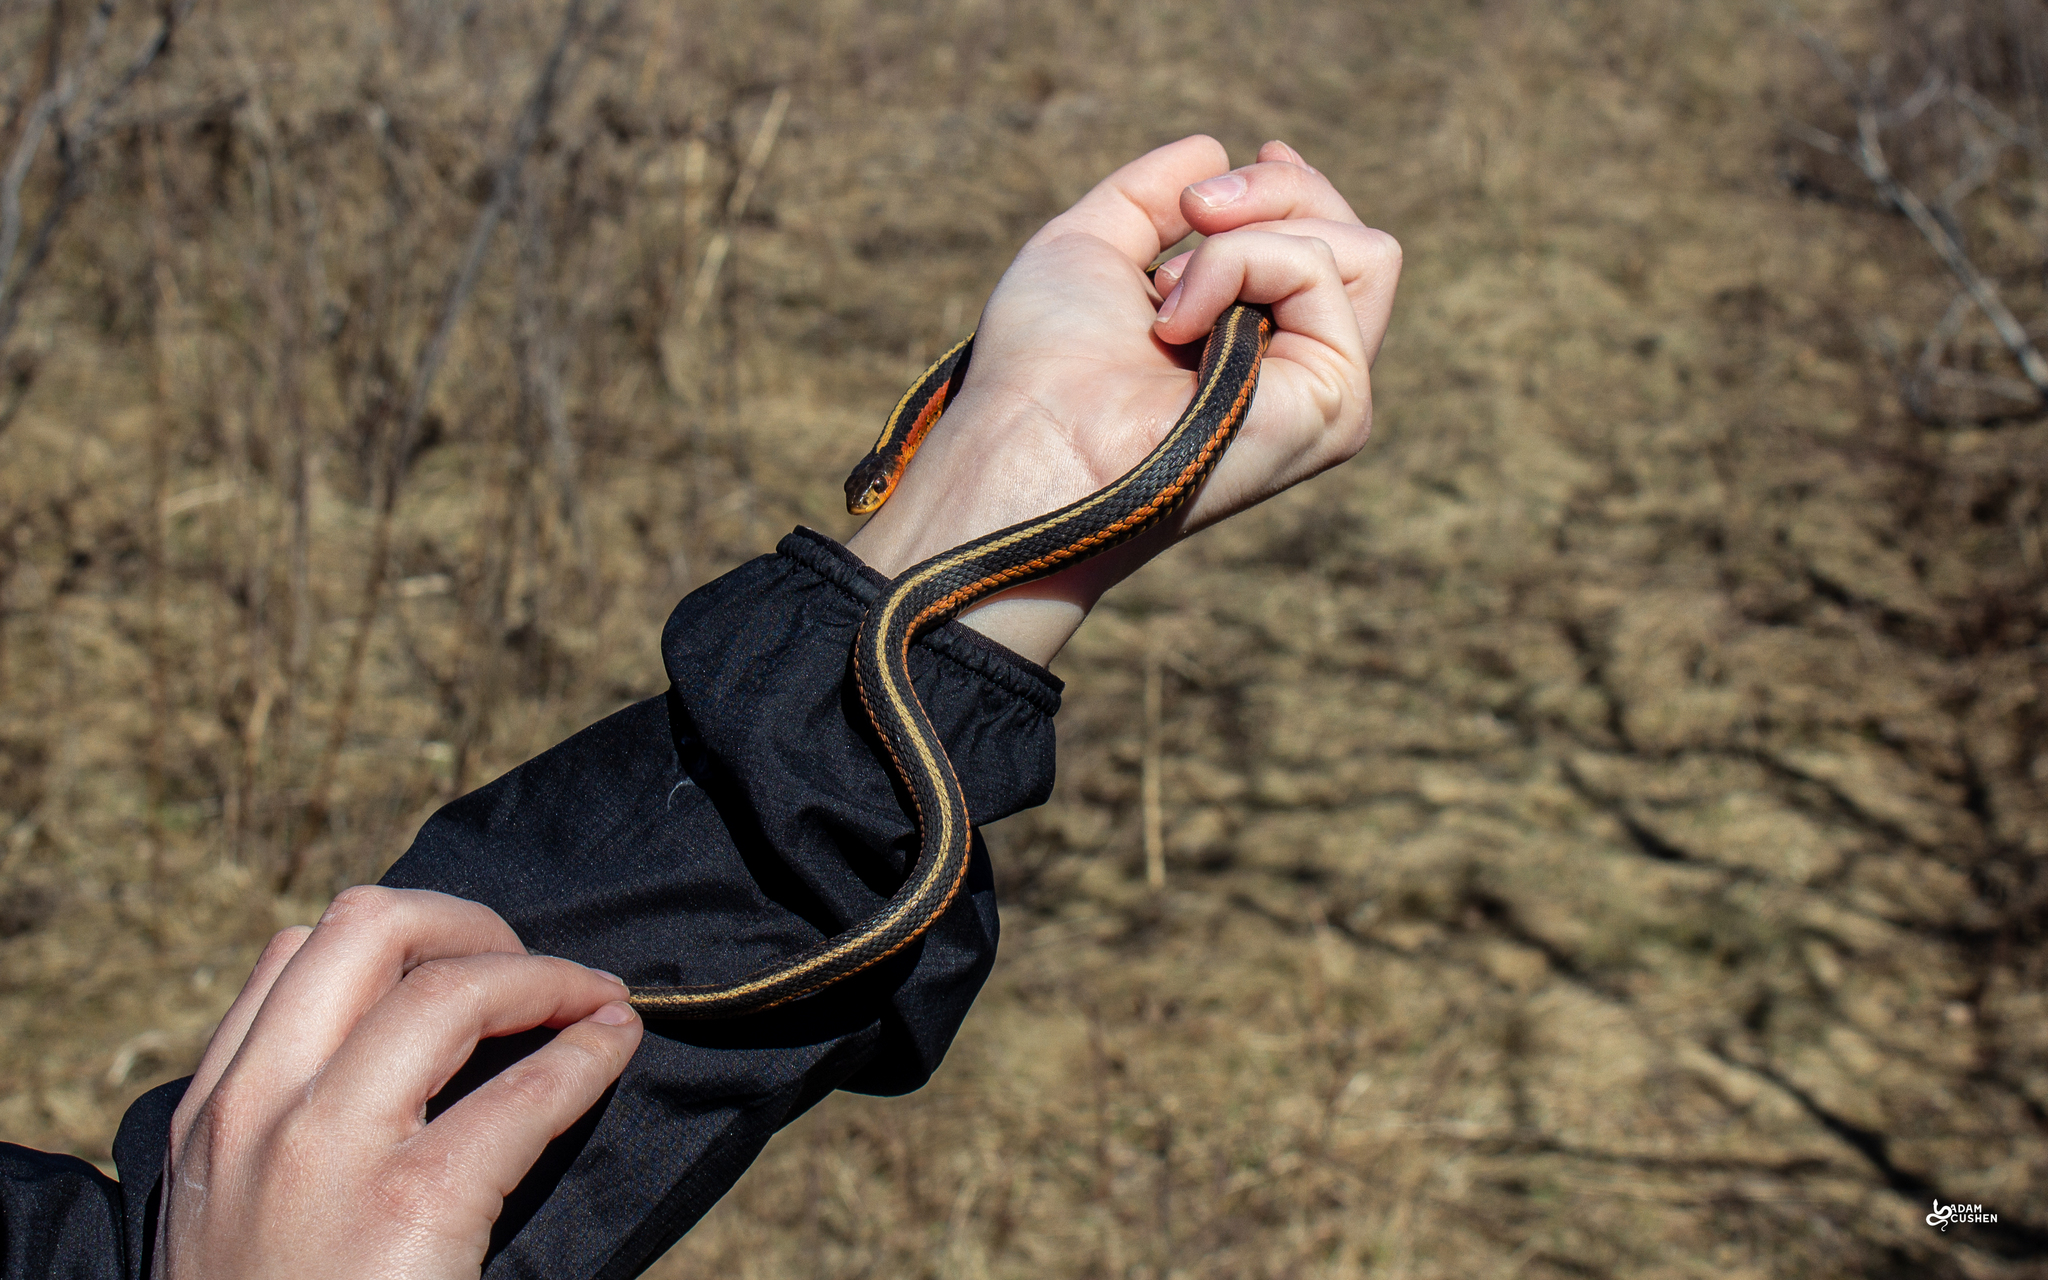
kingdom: Animalia
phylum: Chordata
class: Squamata
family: Colubridae
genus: Thamnophis
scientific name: Thamnophis sirtalis
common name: Common garter snake
